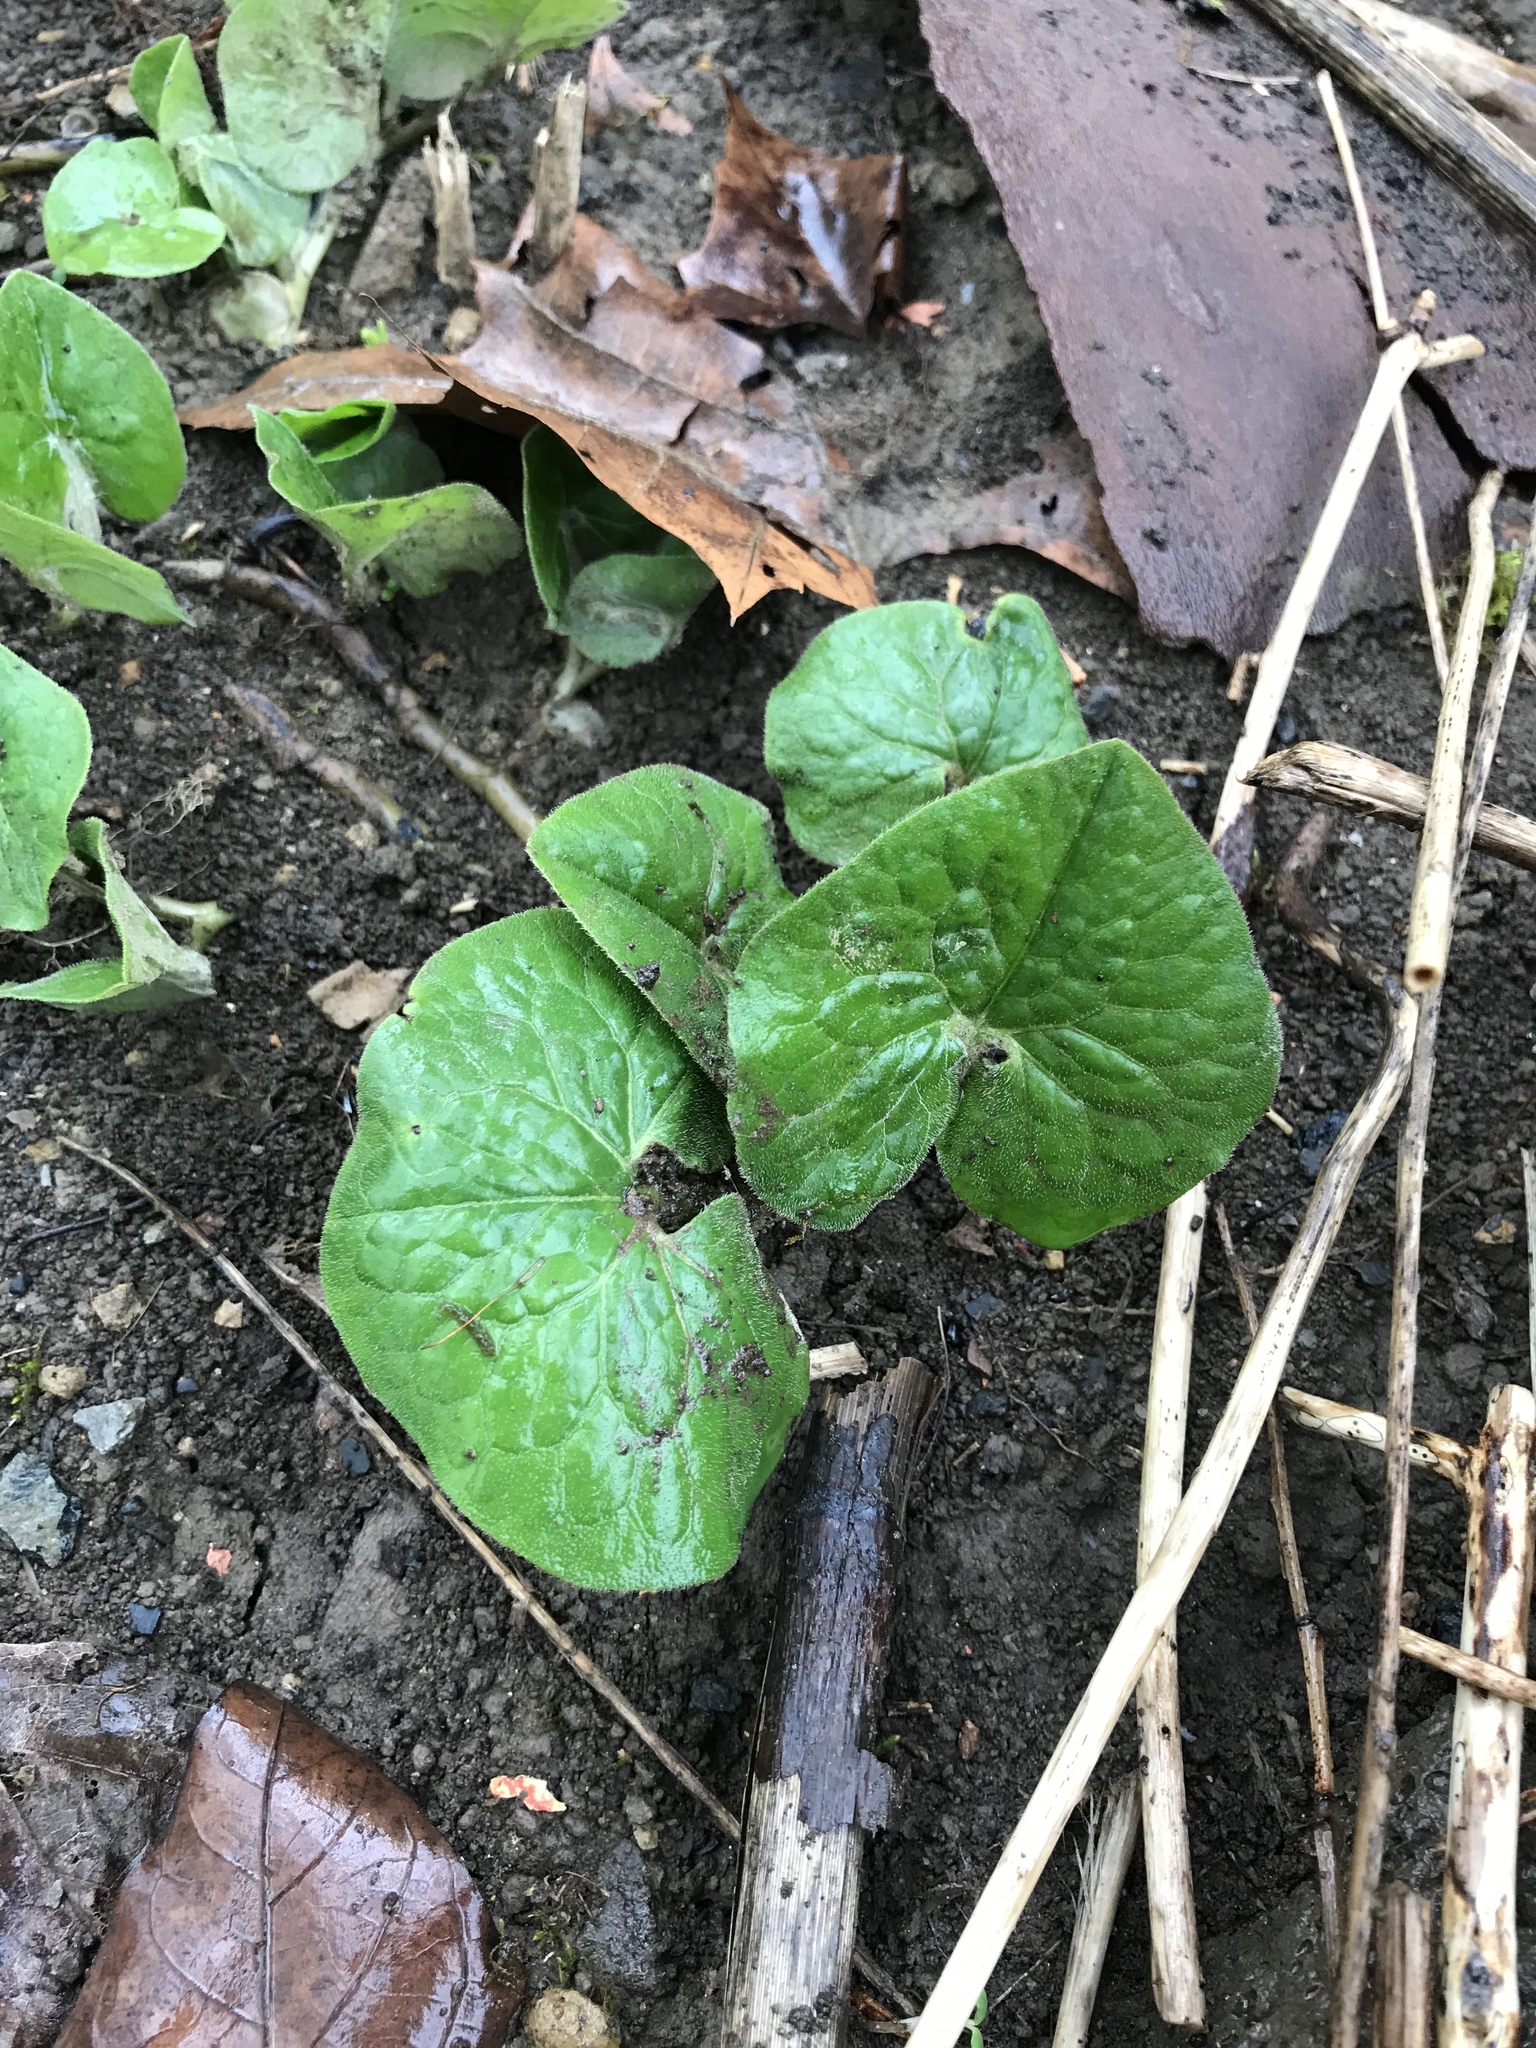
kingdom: Plantae
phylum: Tracheophyta
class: Magnoliopsida
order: Piperales
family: Aristolochiaceae
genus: Asarum
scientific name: Asarum canadense
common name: Wild ginger
